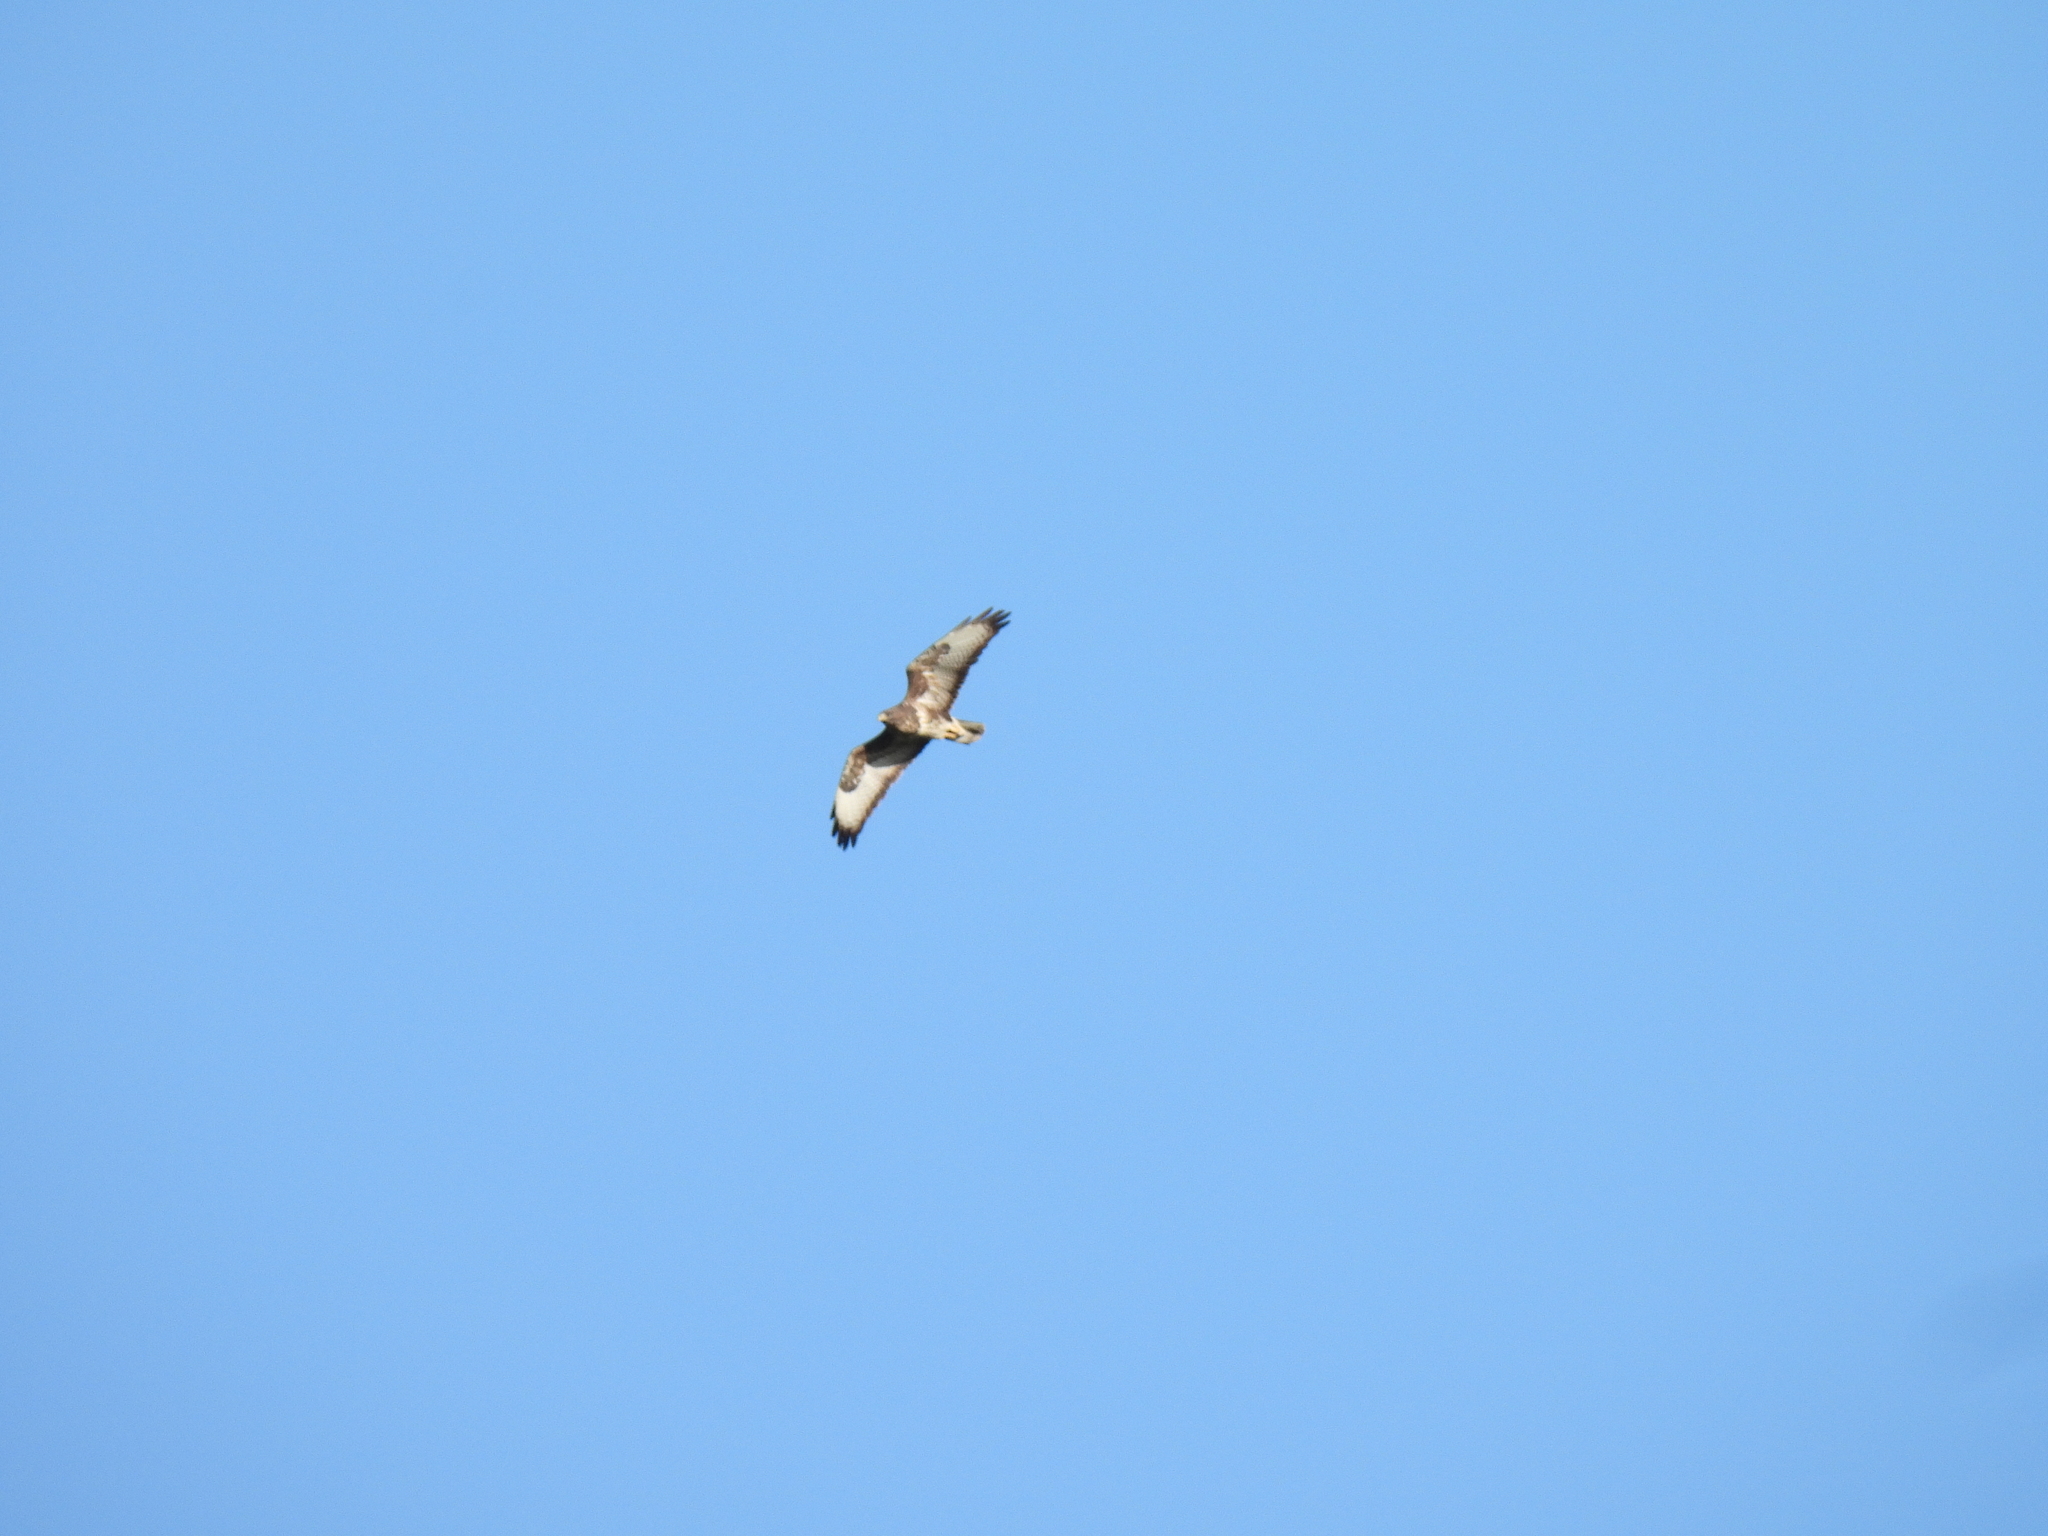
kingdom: Animalia
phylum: Chordata
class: Aves
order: Accipitriformes
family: Accipitridae
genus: Buteo
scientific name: Buteo buteo
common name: Common buzzard
